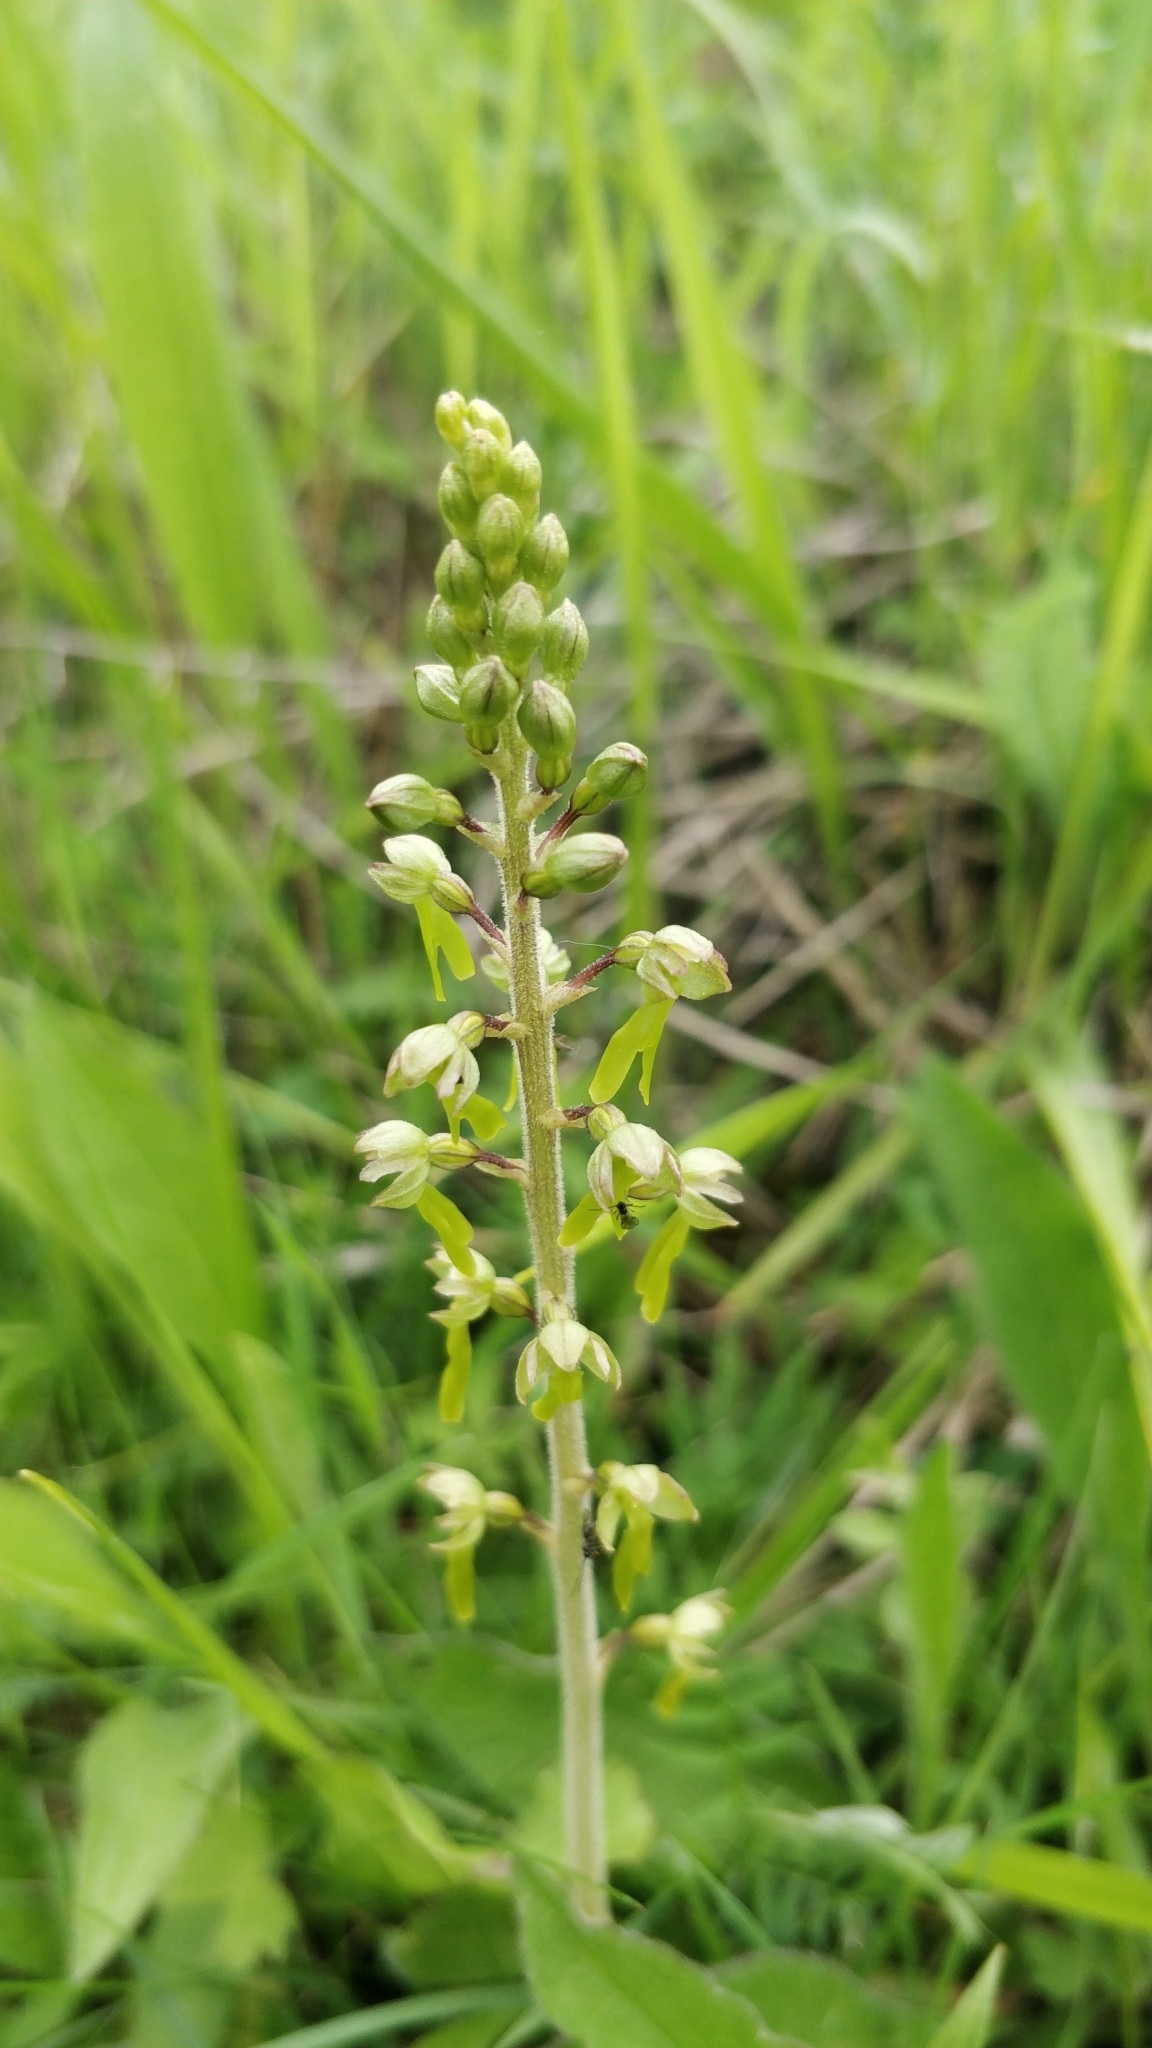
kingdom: Plantae
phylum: Tracheophyta
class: Liliopsida
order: Asparagales
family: Orchidaceae
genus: Neottia
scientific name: Neottia ovata
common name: Common twayblade
